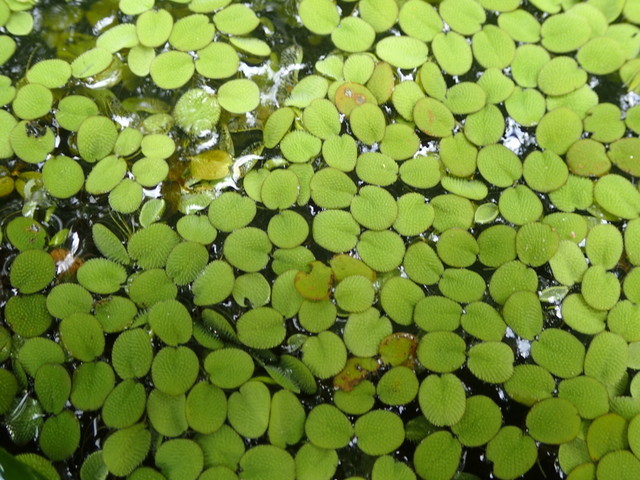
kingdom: Plantae
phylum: Tracheophyta
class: Polypodiopsida
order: Salviniales
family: Salviniaceae
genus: Salvinia
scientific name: Salvinia minima
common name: Water spangles
